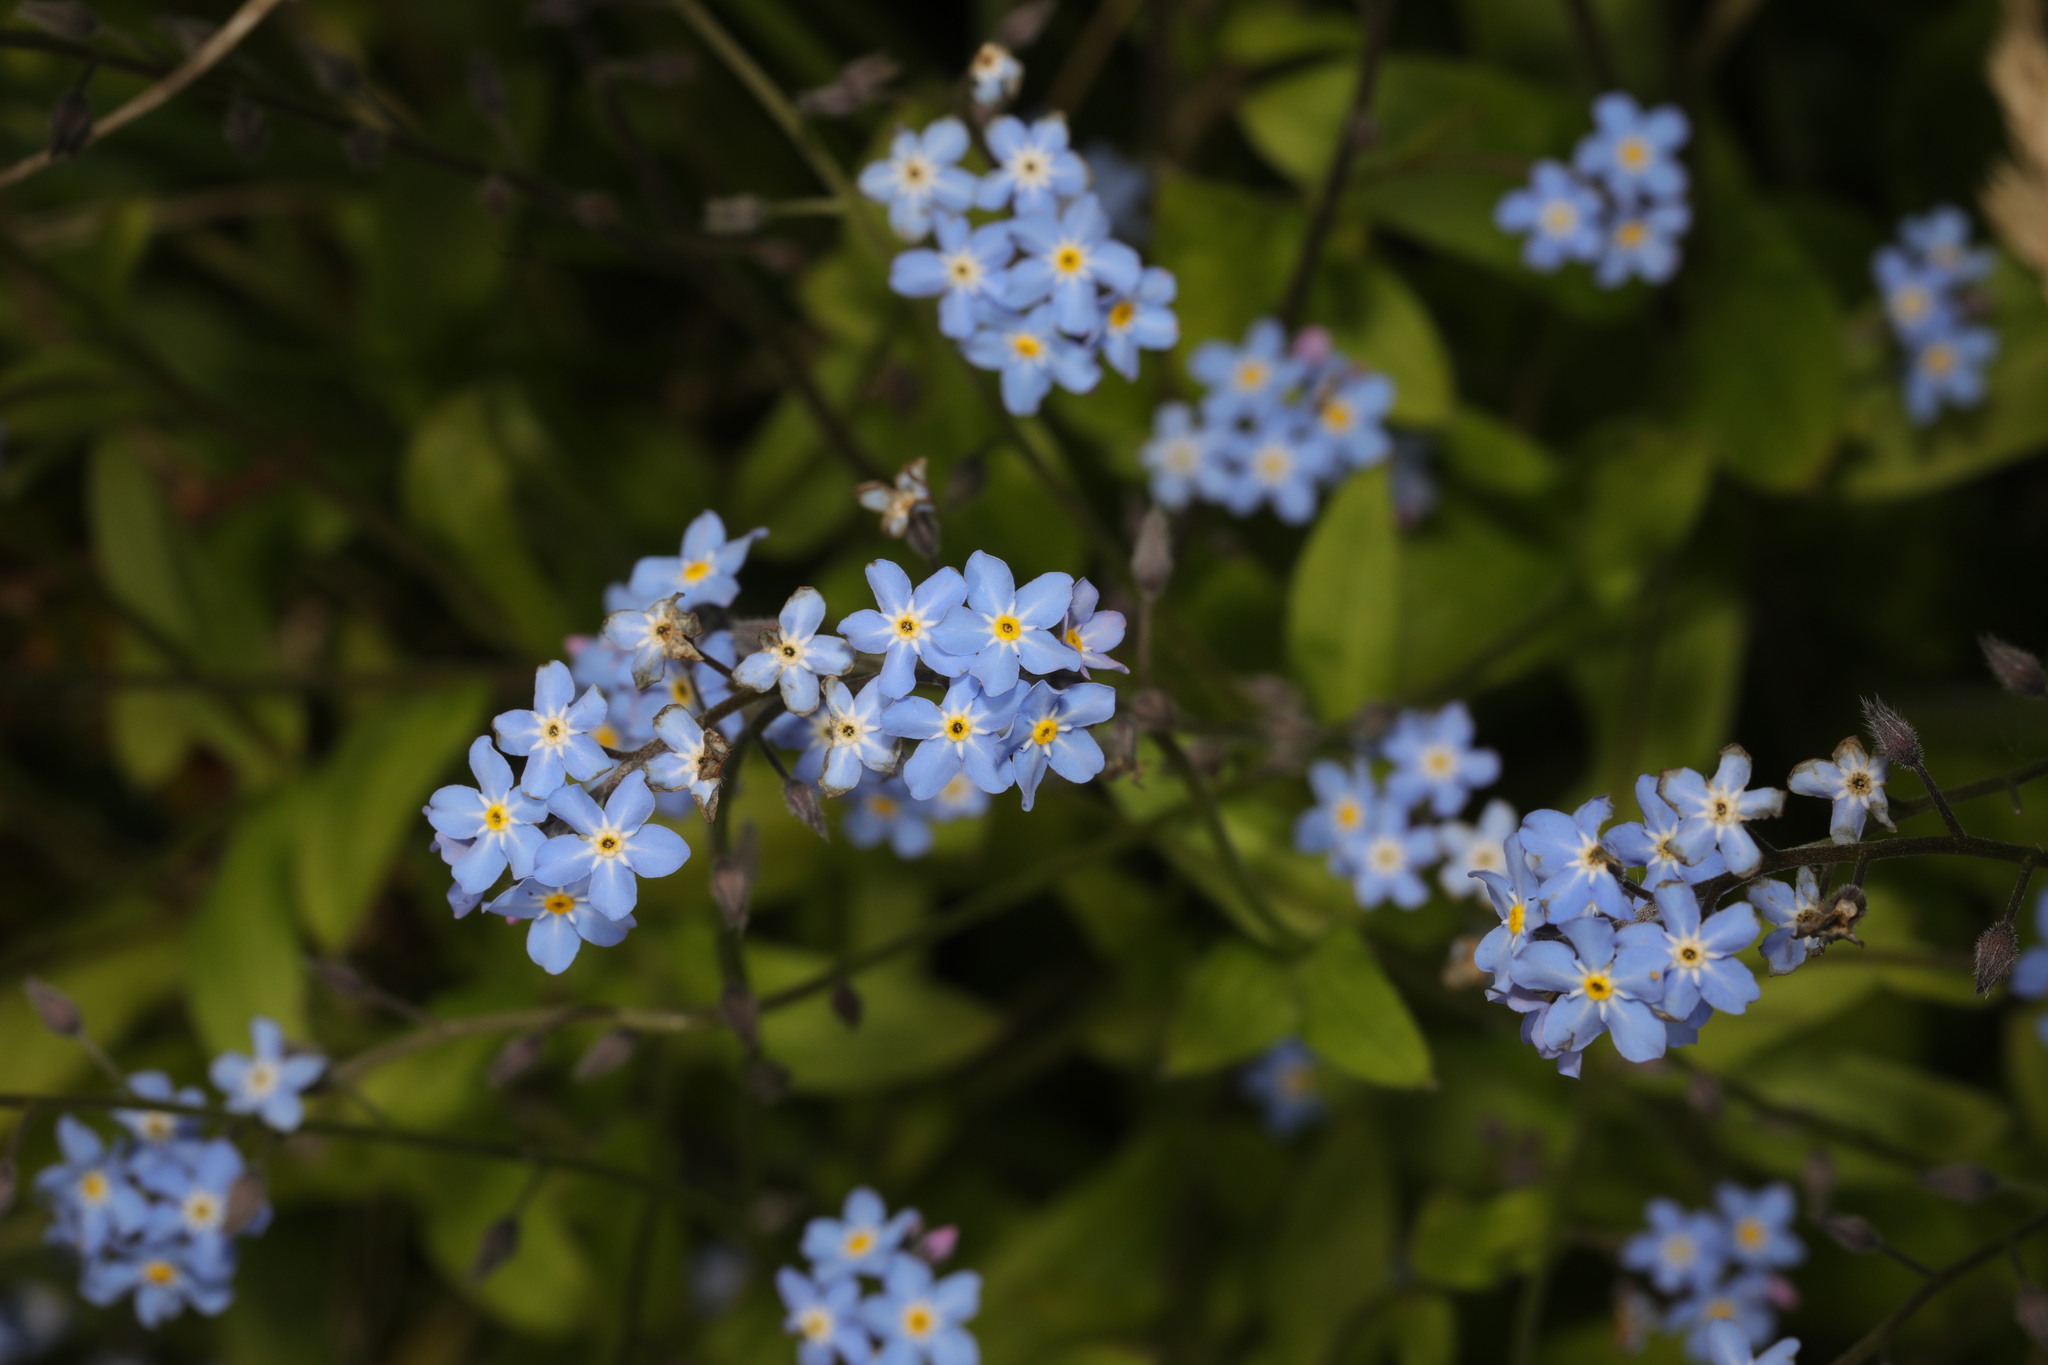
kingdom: Plantae
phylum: Tracheophyta
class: Magnoliopsida
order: Boraginales
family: Boraginaceae
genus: Myosotis
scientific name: Myosotis sylvatica
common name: Wood forget-me-not
